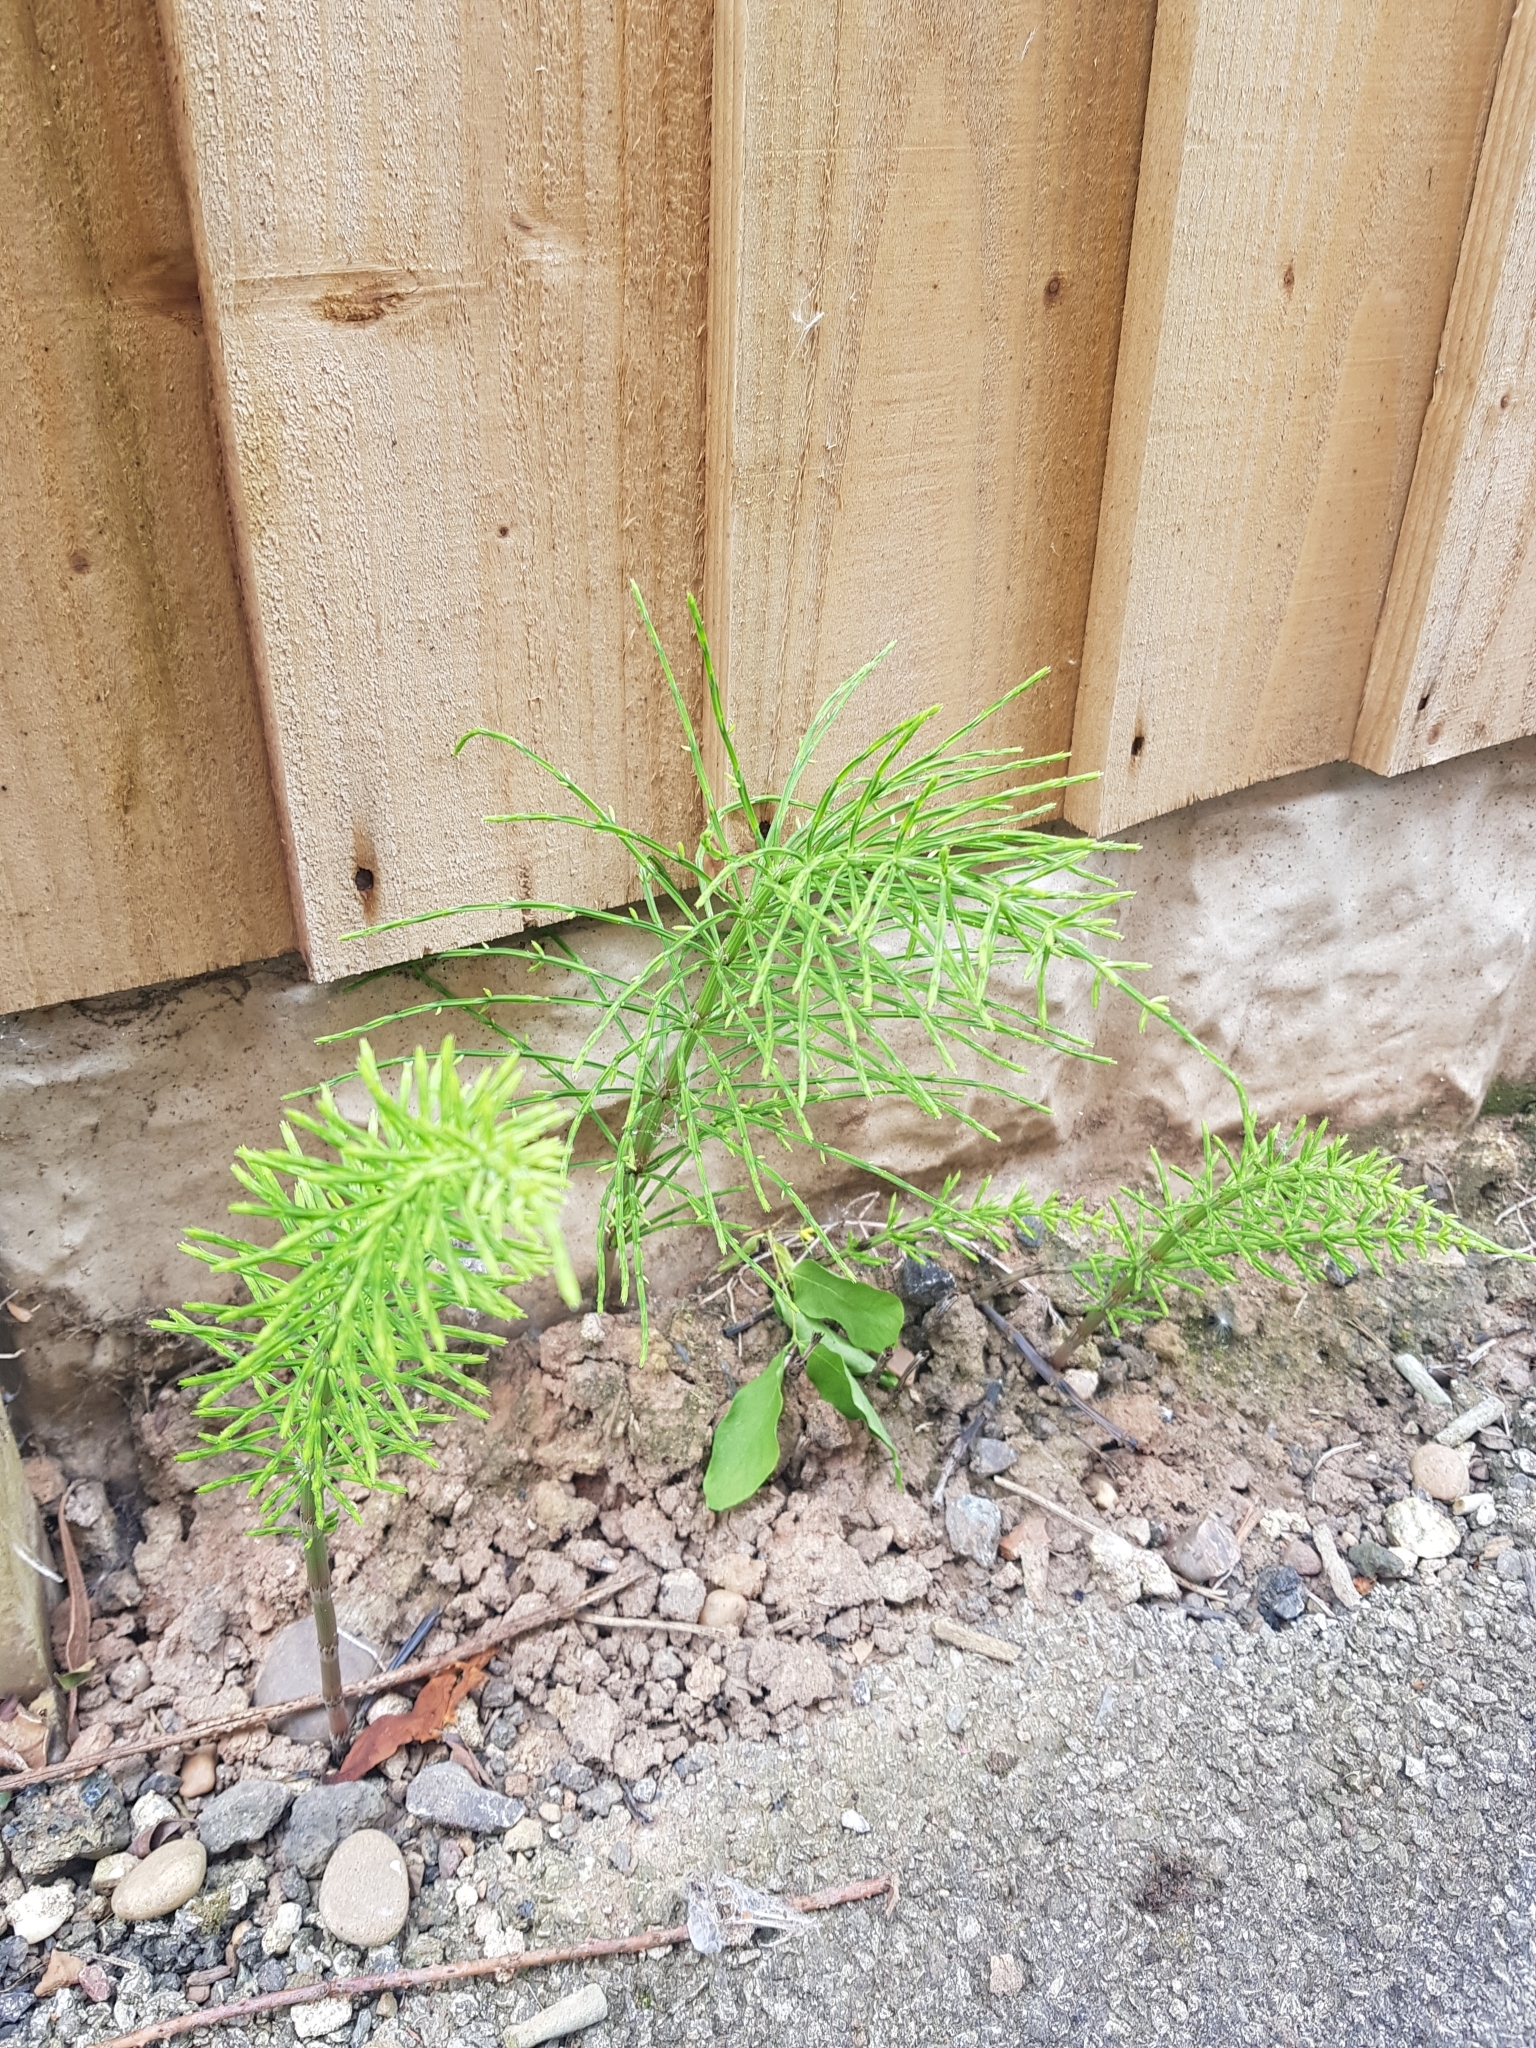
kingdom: Plantae
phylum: Tracheophyta
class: Polypodiopsida
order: Equisetales
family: Equisetaceae
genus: Equisetum
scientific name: Equisetum arvense
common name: Field horsetail
